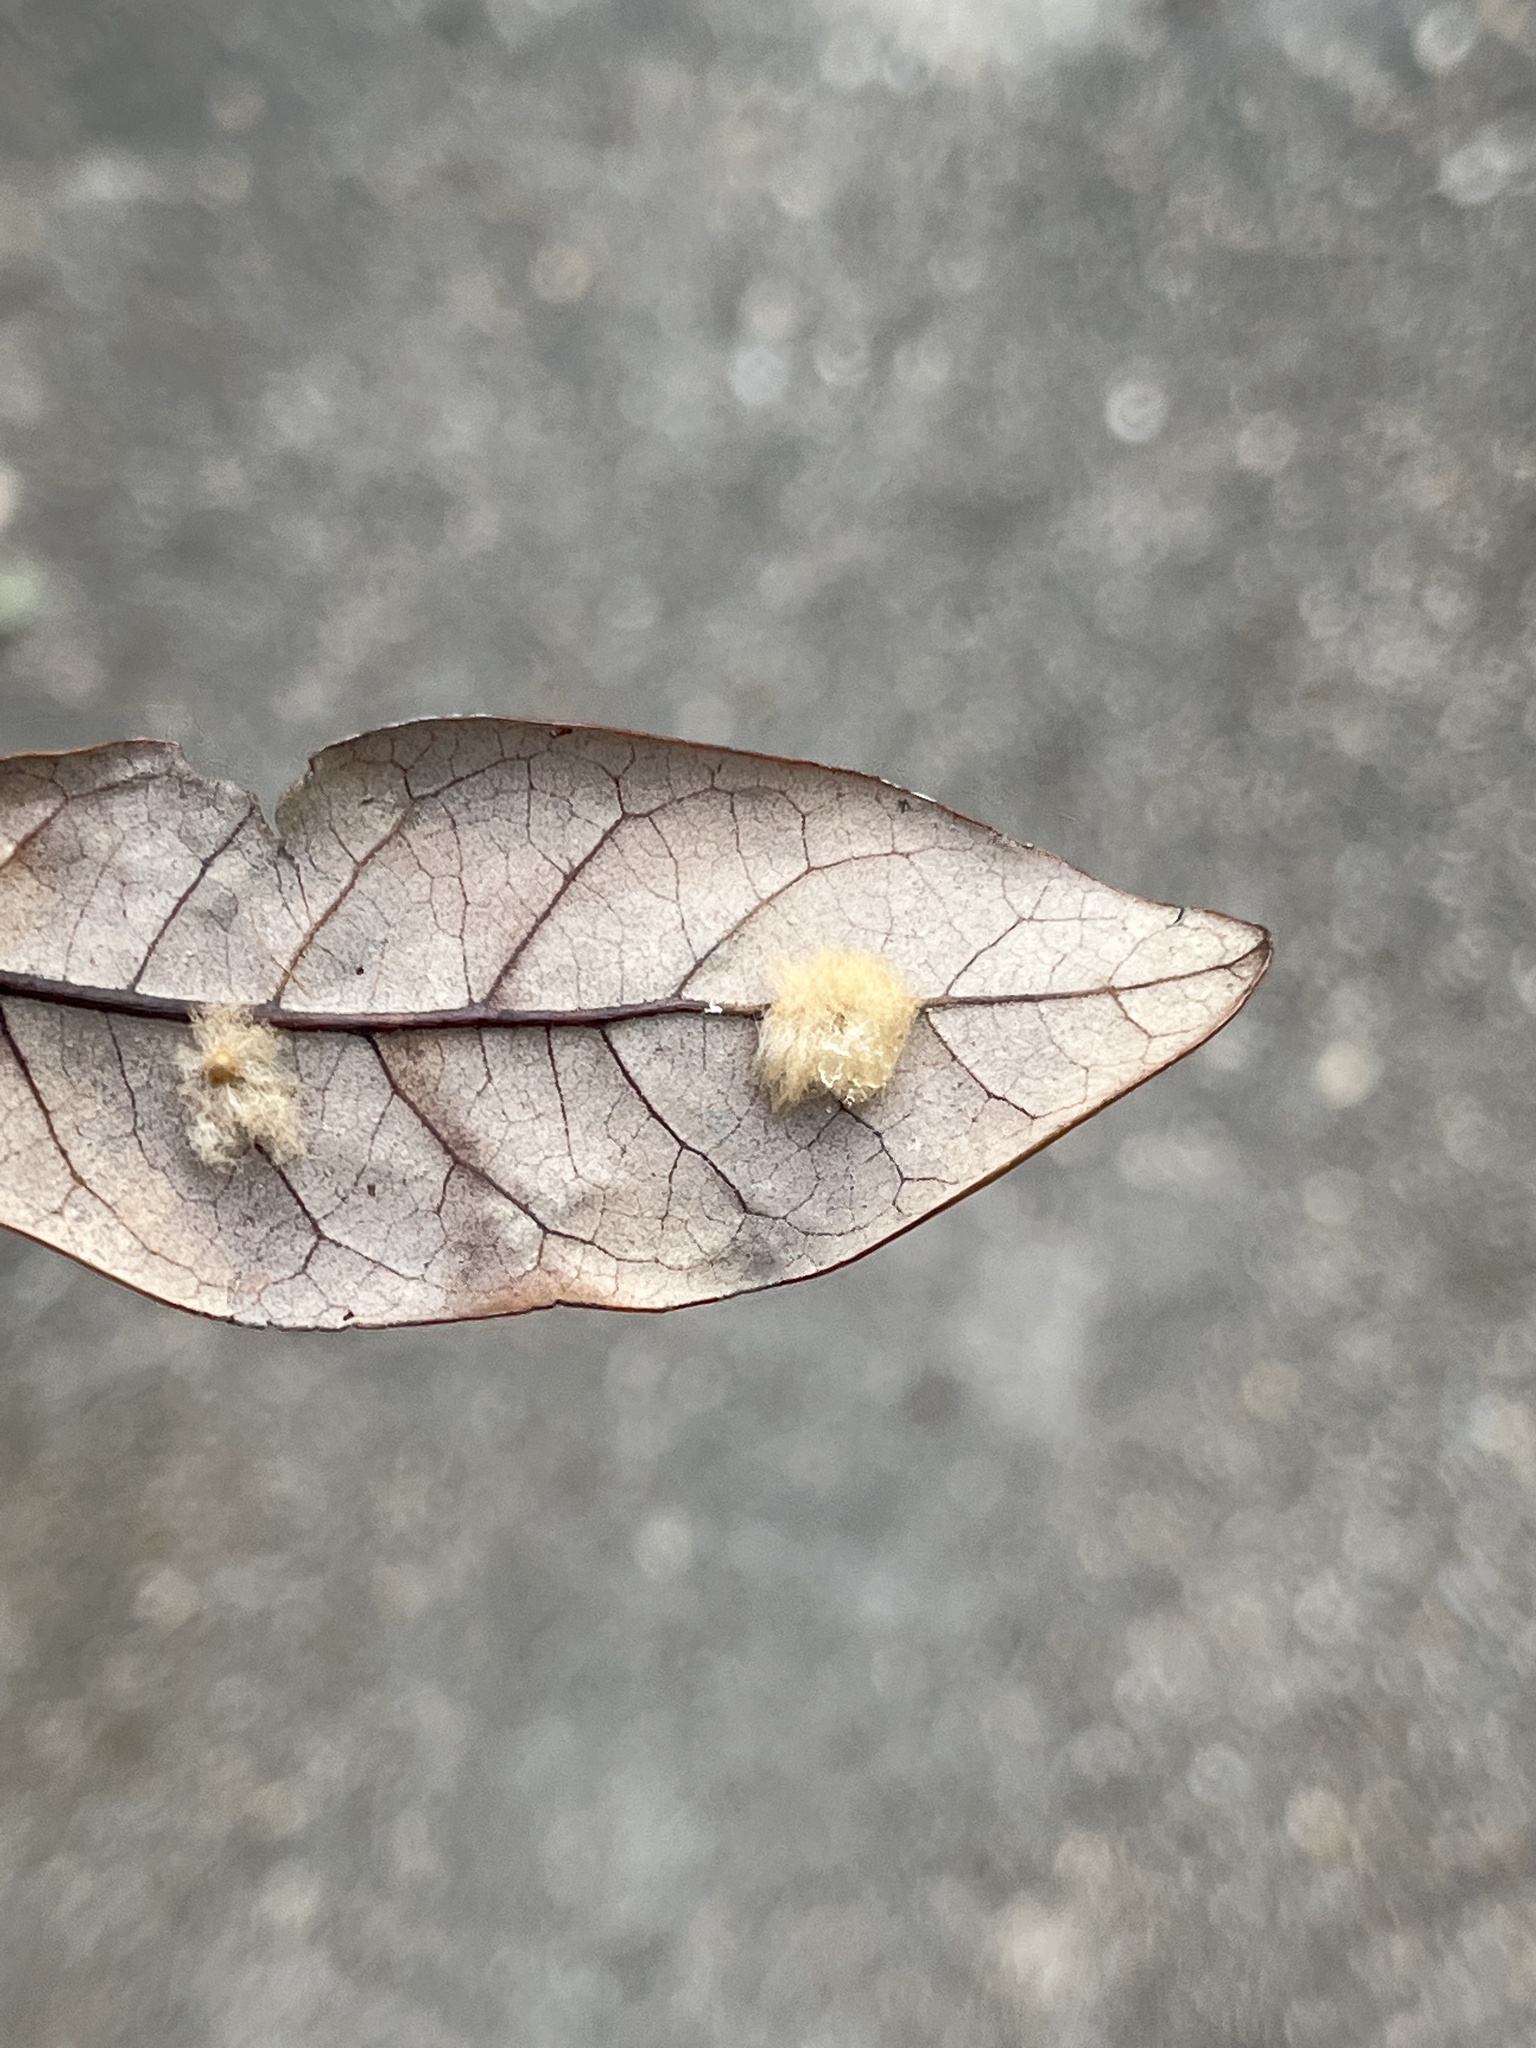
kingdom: Animalia
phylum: Arthropoda
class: Insecta
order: Hymenoptera
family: Cynipidae
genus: Andricus
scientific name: Andricus Druon quercuslanigerum
